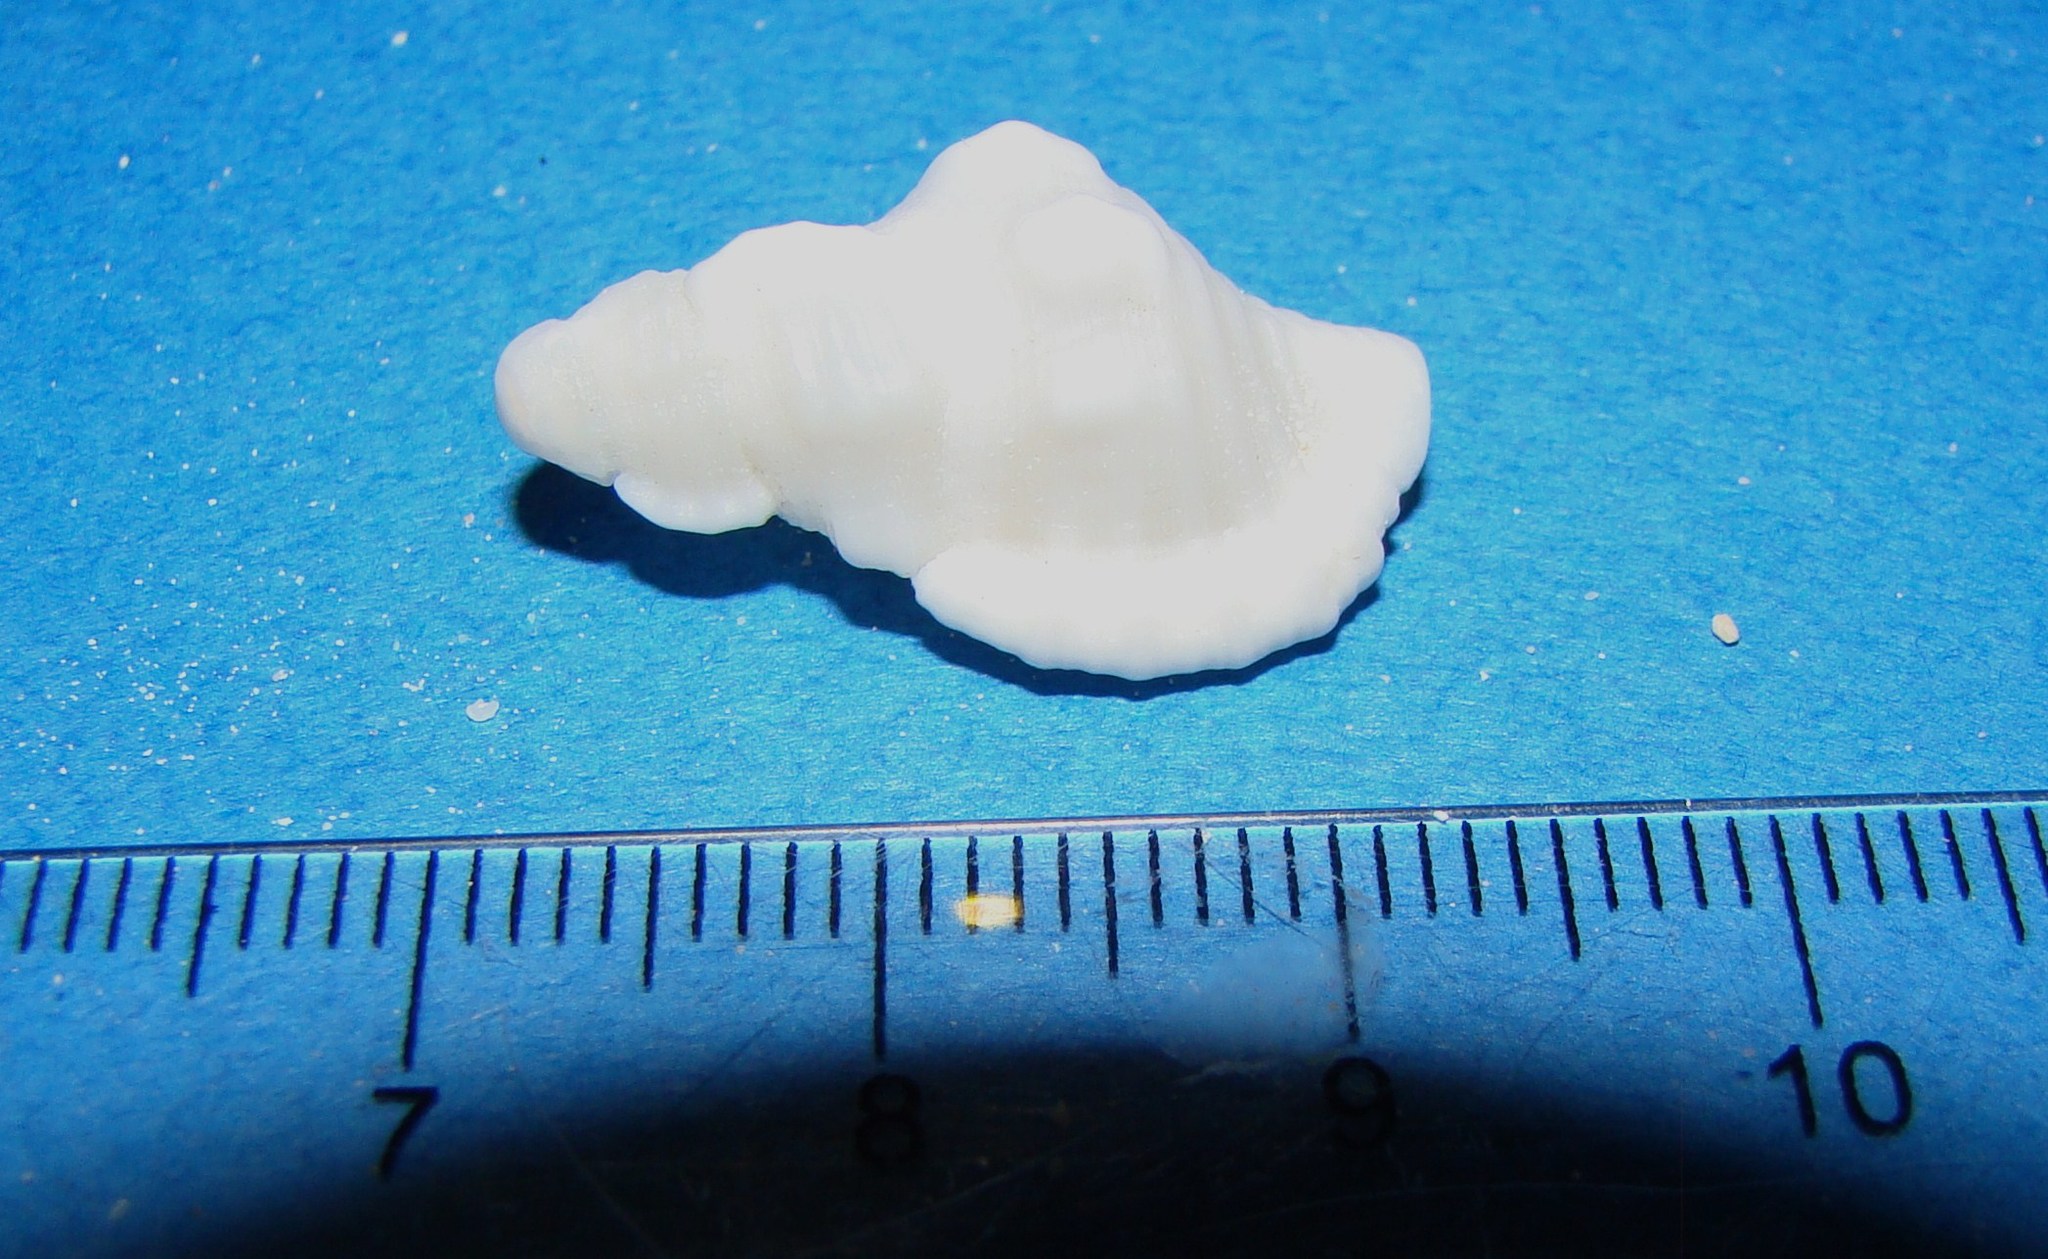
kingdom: Animalia
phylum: Mollusca
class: Gastropoda
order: Littorinimorpha
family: Cymatiidae
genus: Monoplex
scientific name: Monoplex mundus
